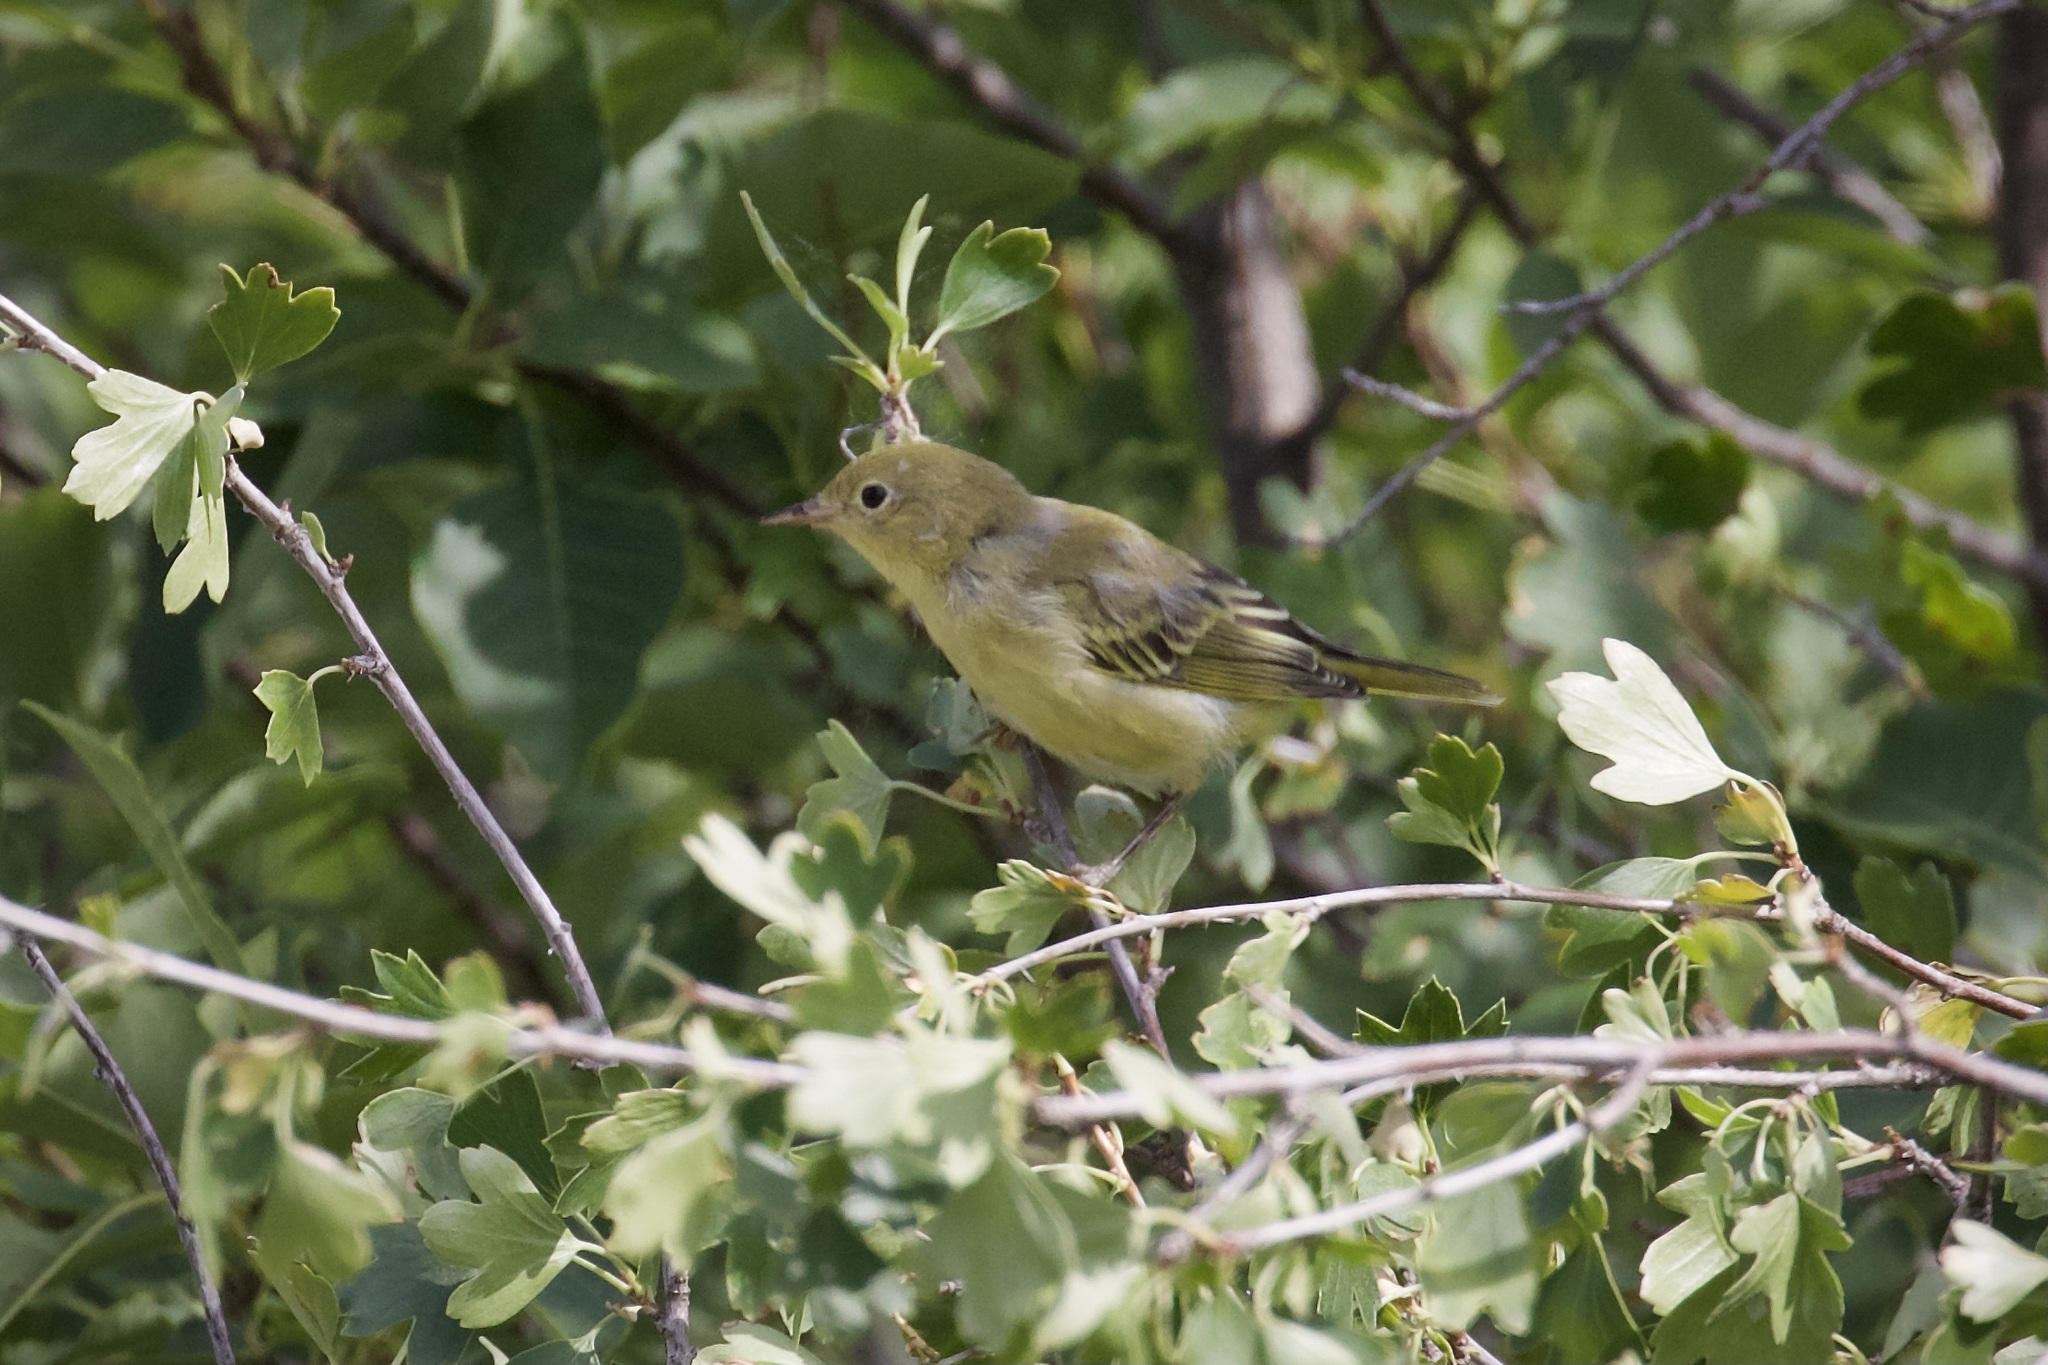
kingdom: Animalia
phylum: Chordata
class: Aves
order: Passeriformes
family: Parulidae
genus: Setophaga
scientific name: Setophaga petechia
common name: Yellow warbler
